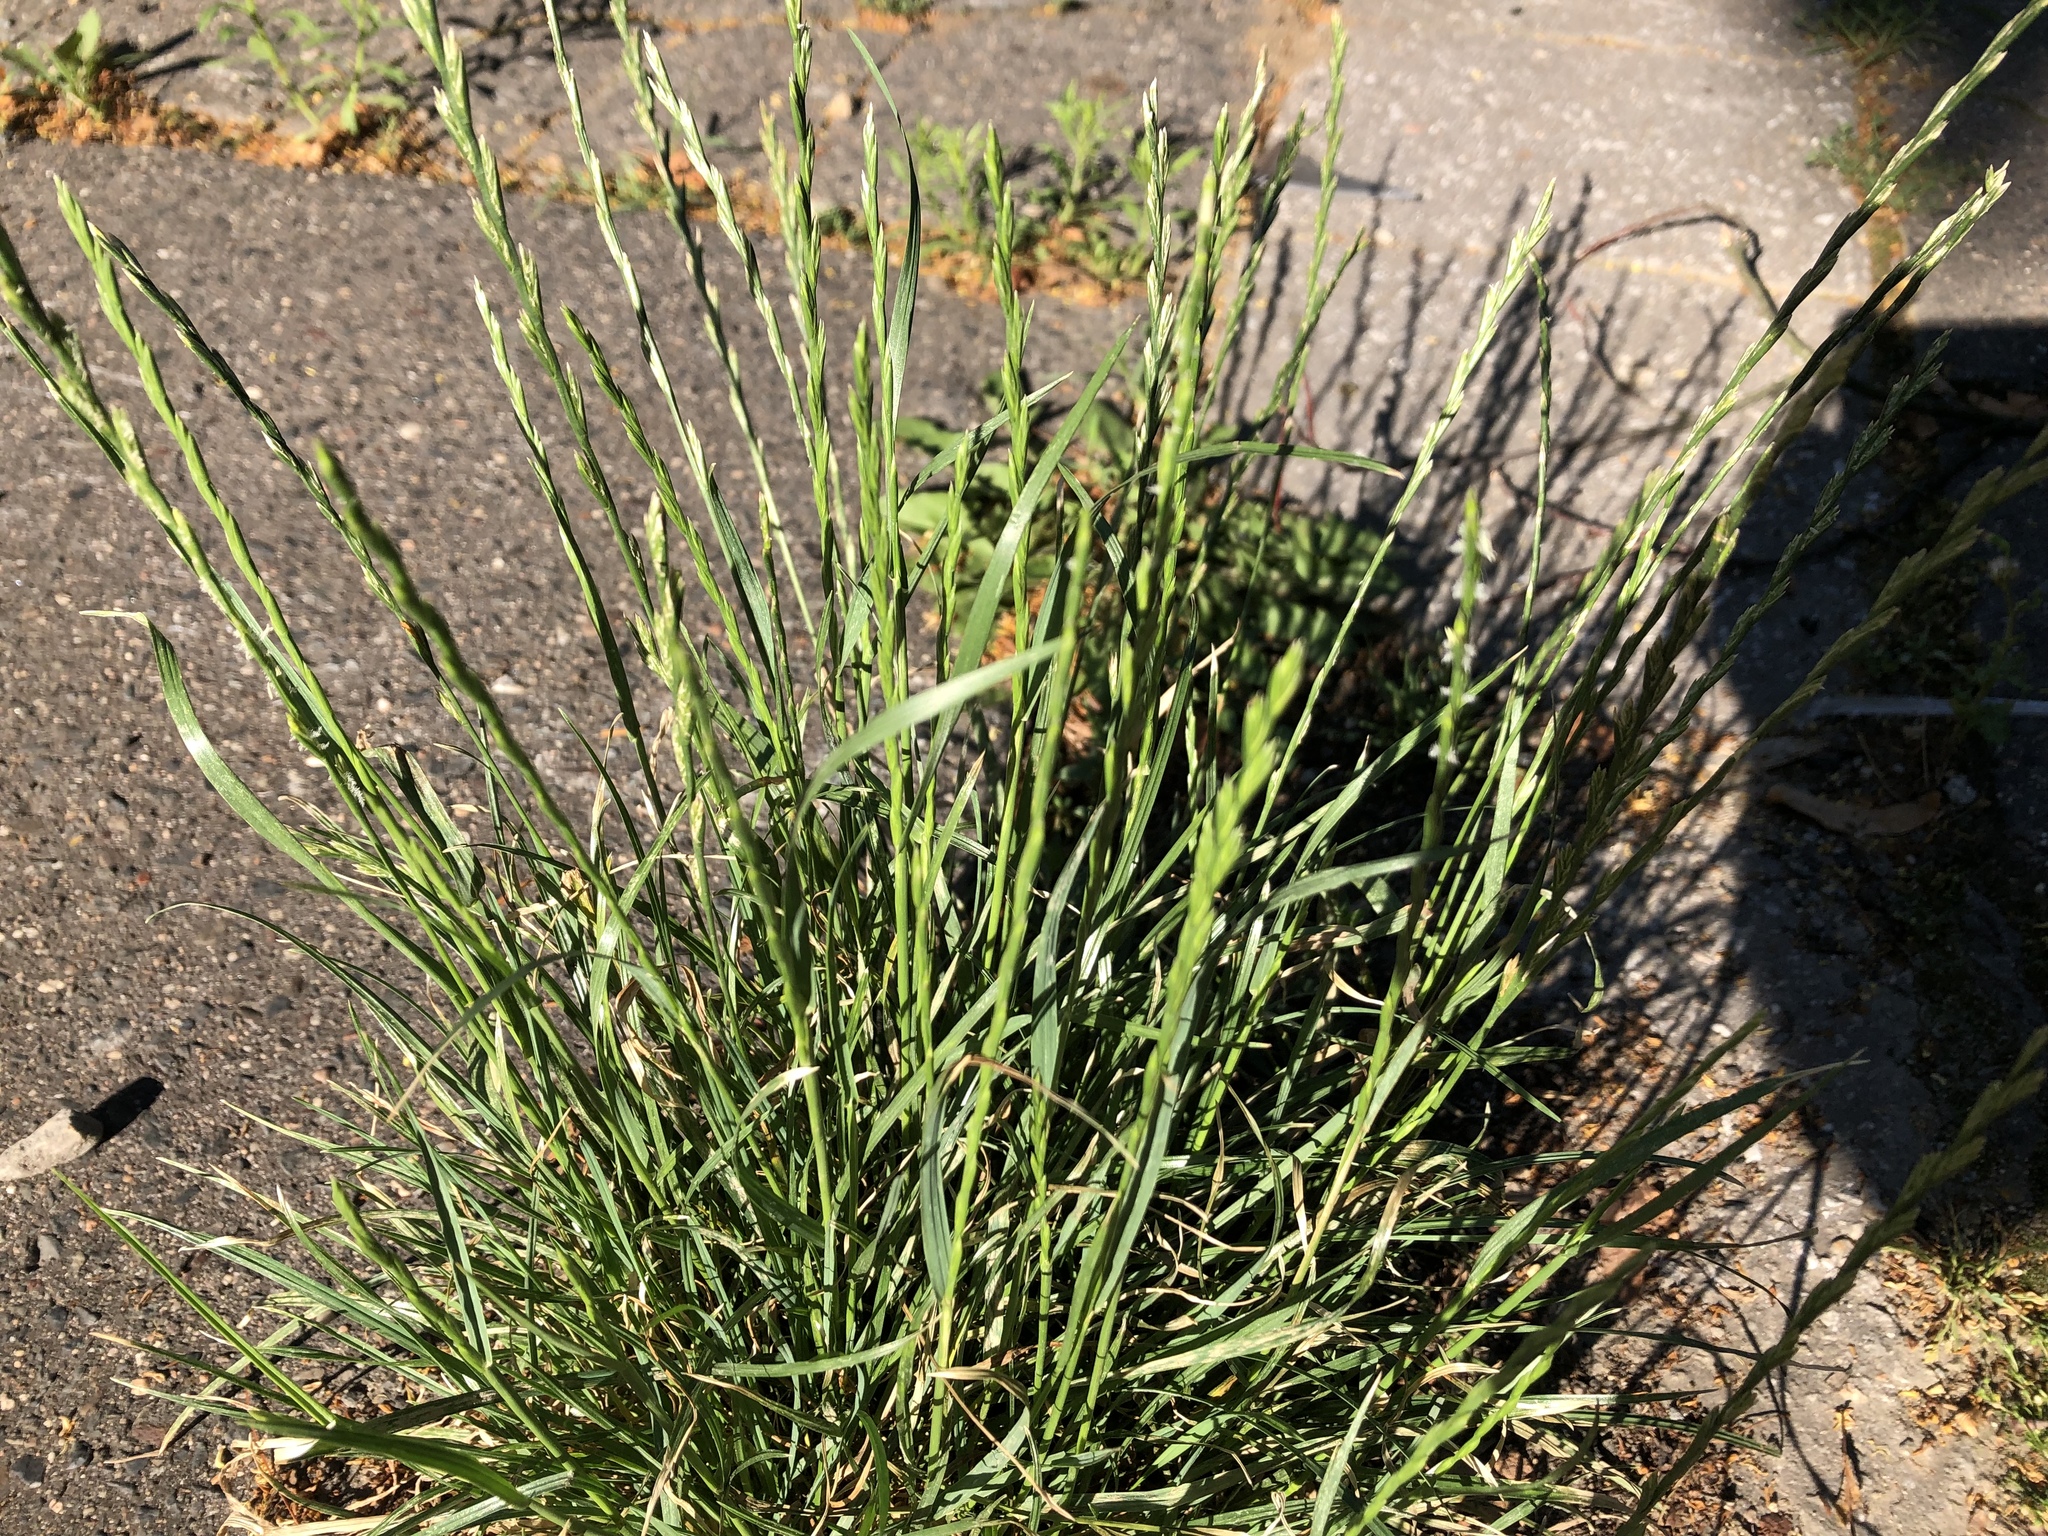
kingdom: Plantae
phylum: Tracheophyta
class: Liliopsida
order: Poales
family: Poaceae
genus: Lolium
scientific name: Lolium perenne
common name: Perennial ryegrass
